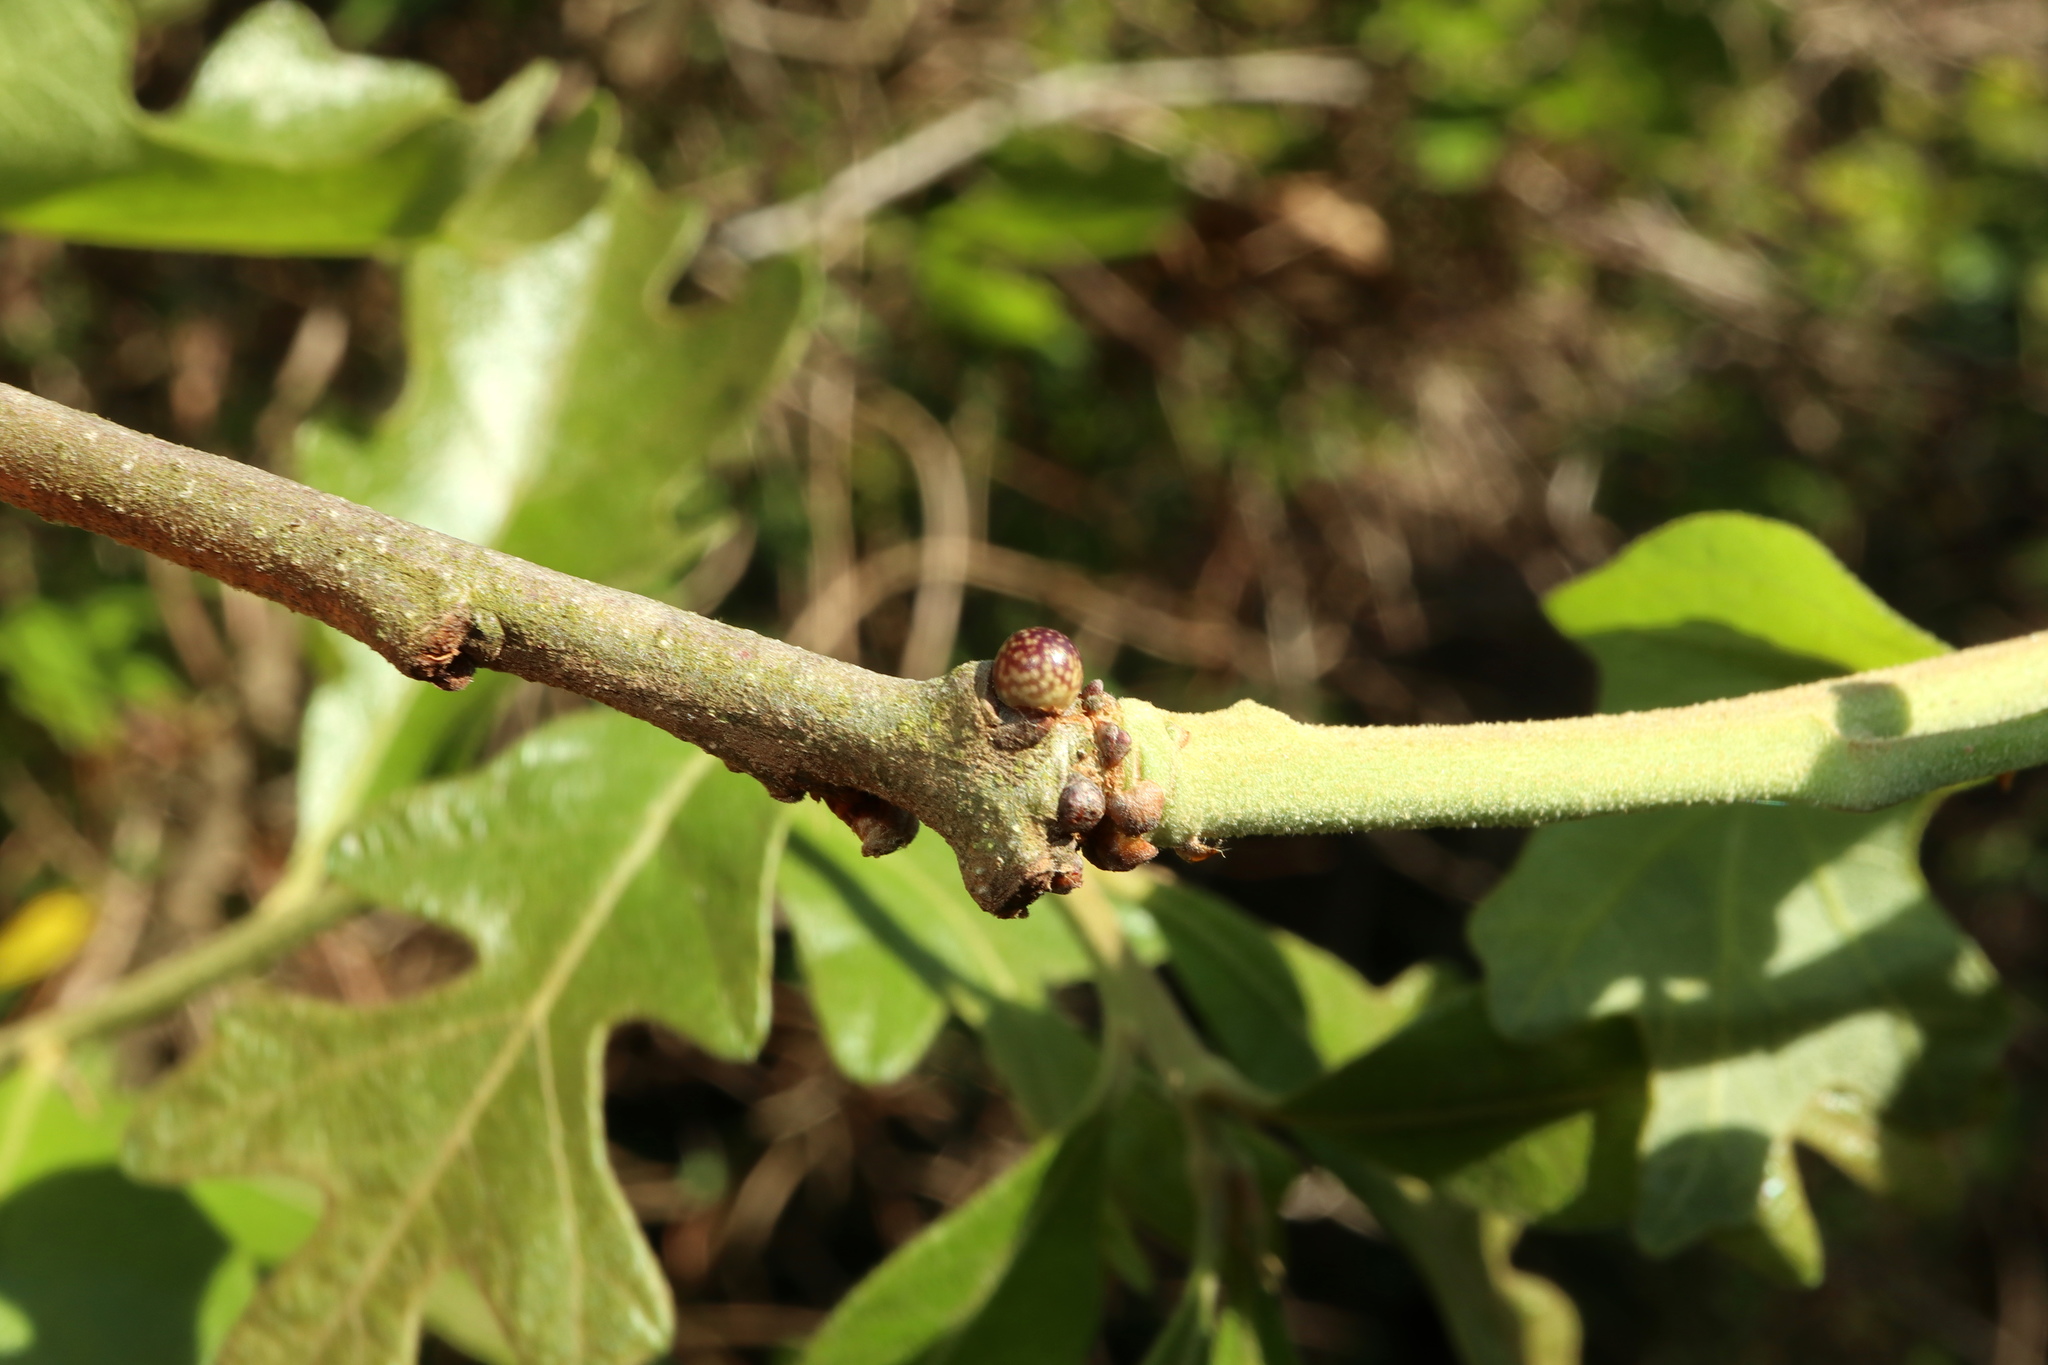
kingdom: Animalia
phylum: Arthropoda
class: Insecta
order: Hymenoptera
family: Cynipidae
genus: Andricus
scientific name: Andricus
